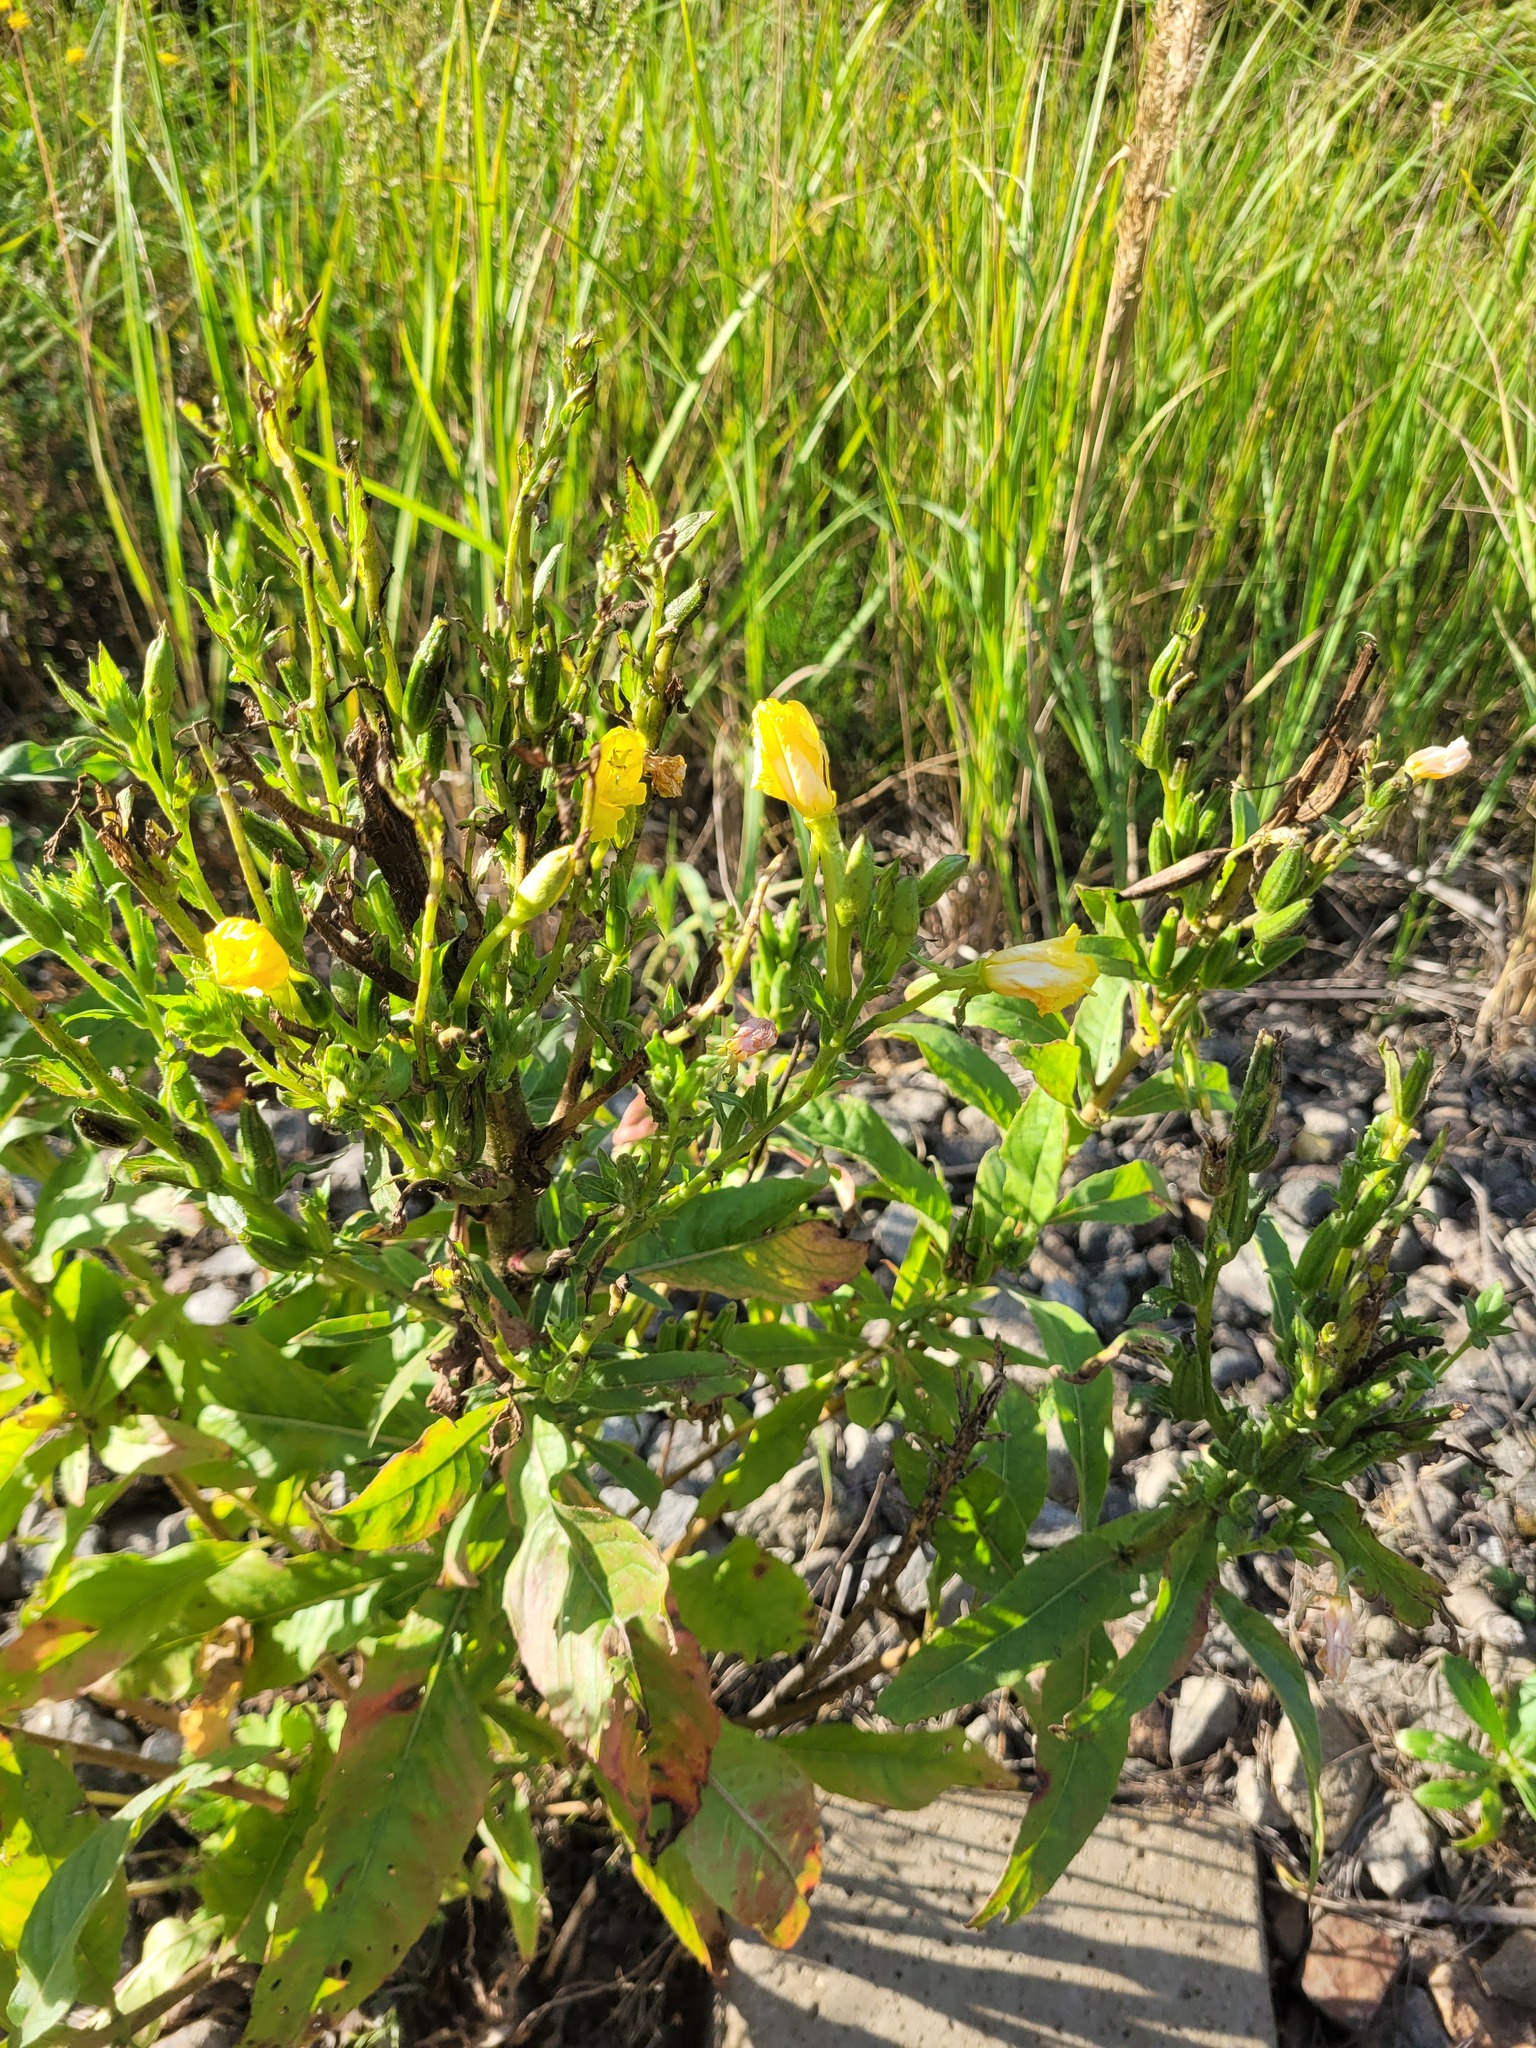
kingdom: Plantae
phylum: Tracheophyta
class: Magnoliopsida
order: Myrtales
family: Onagraceae
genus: Oenothera
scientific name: Oenothera biennis
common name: Common evening-primrose
